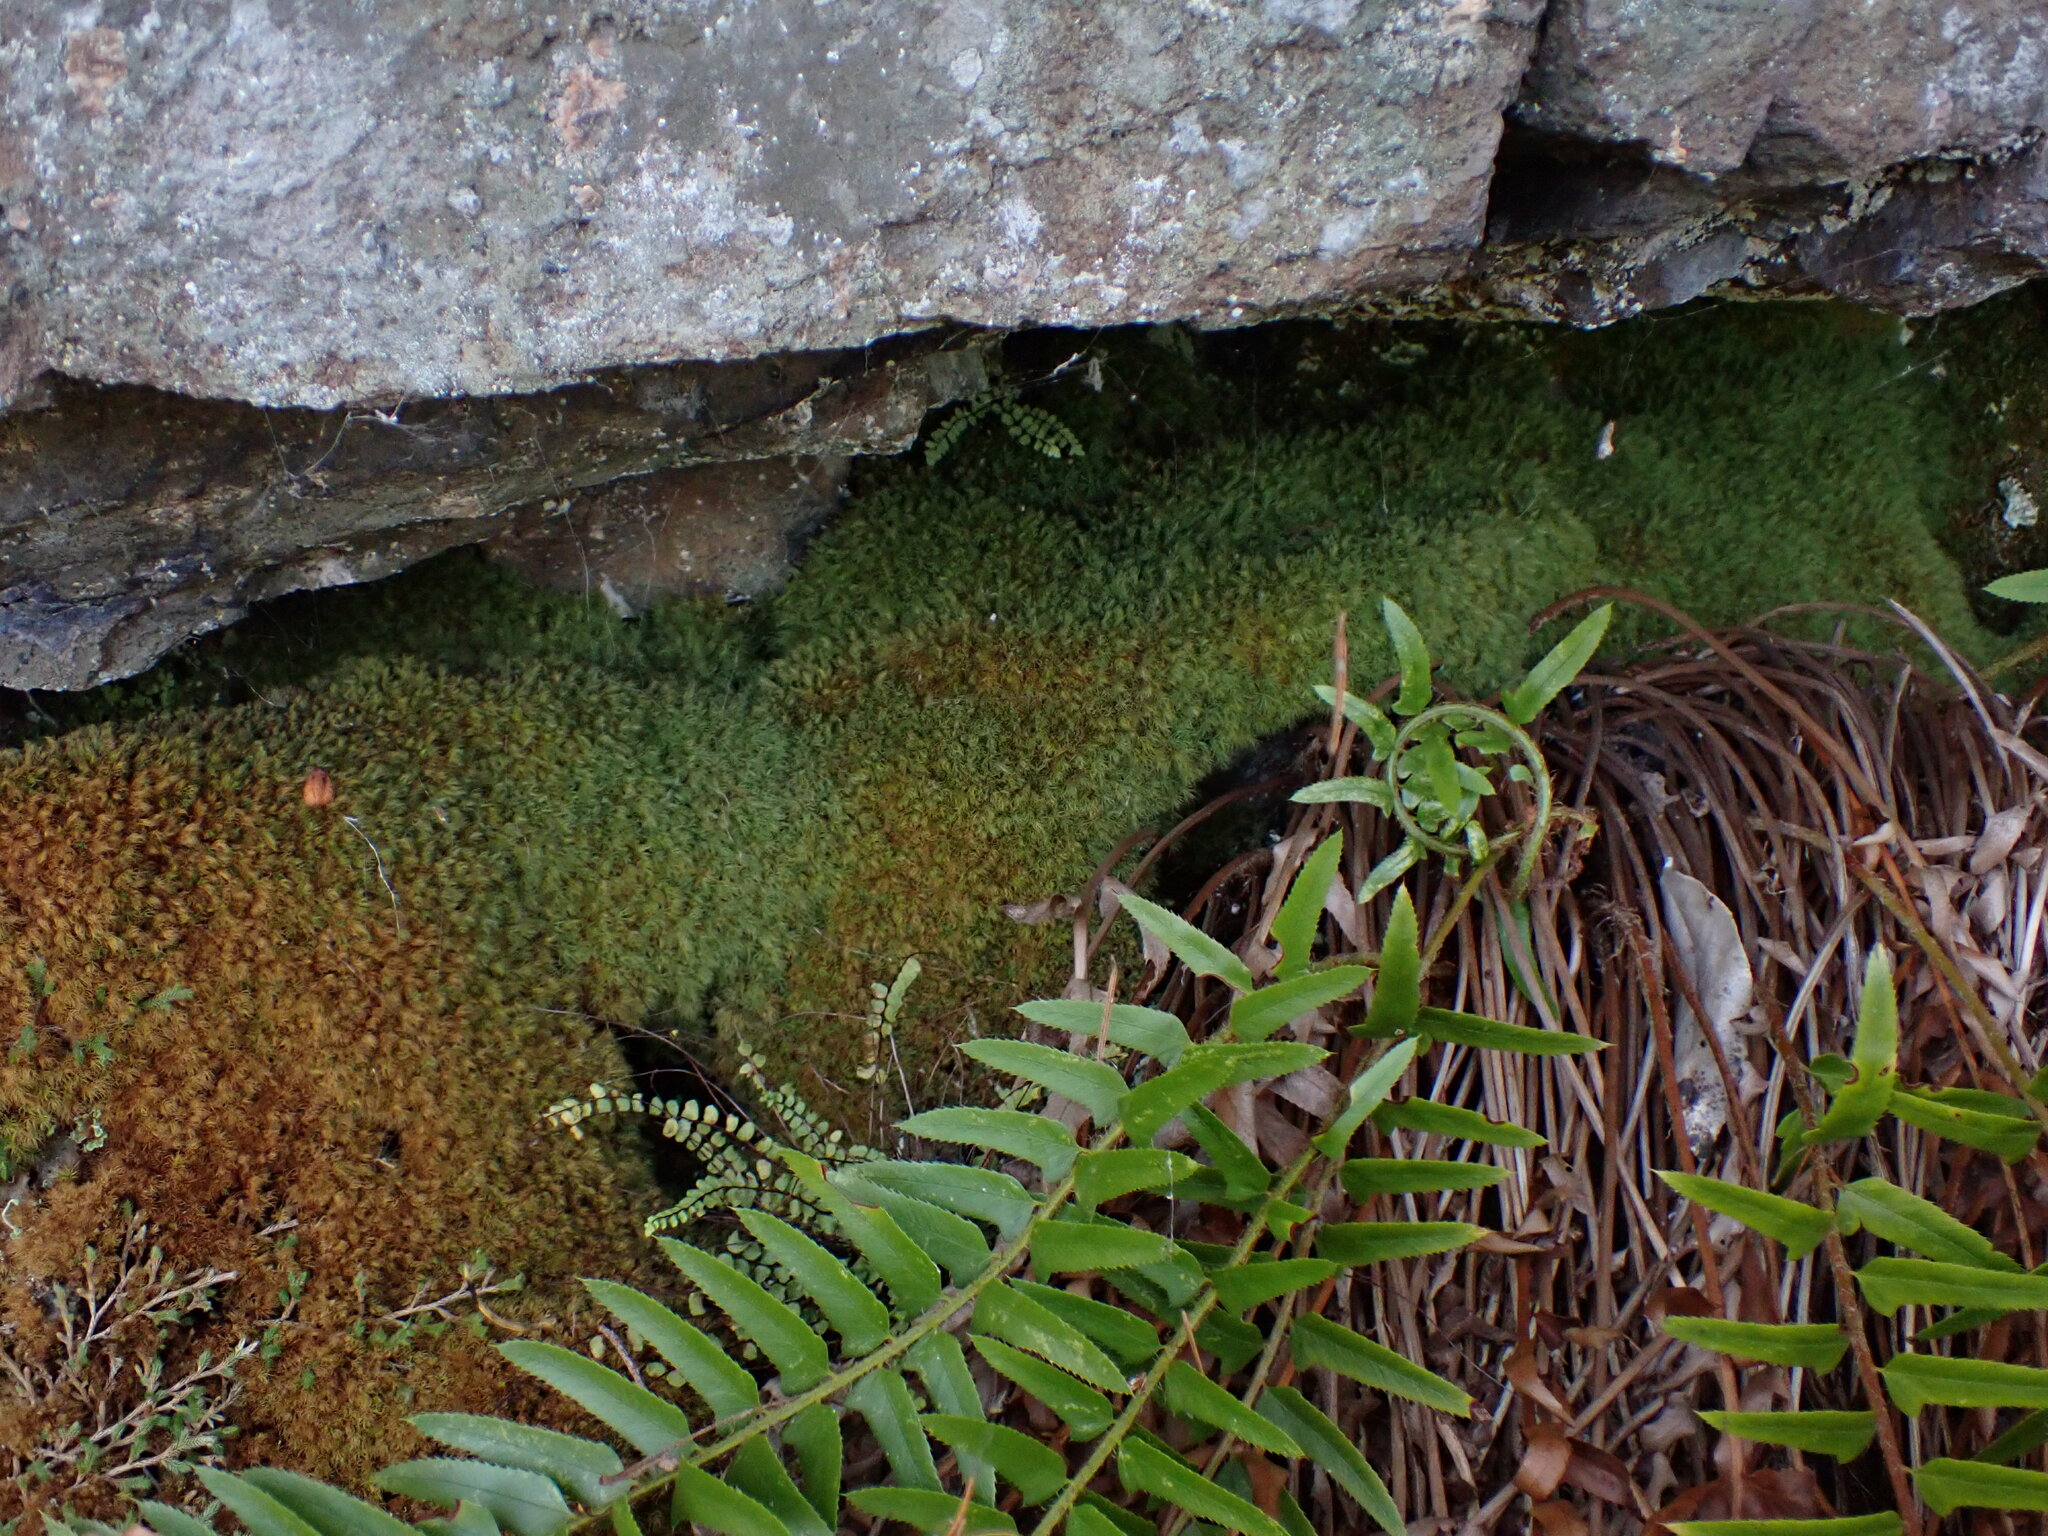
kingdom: Plantae
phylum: Bryophyta
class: Bryopsida
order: Bartramiales
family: Bartramiaceae
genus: Bartramia
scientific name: Bartramia ithyphylla
